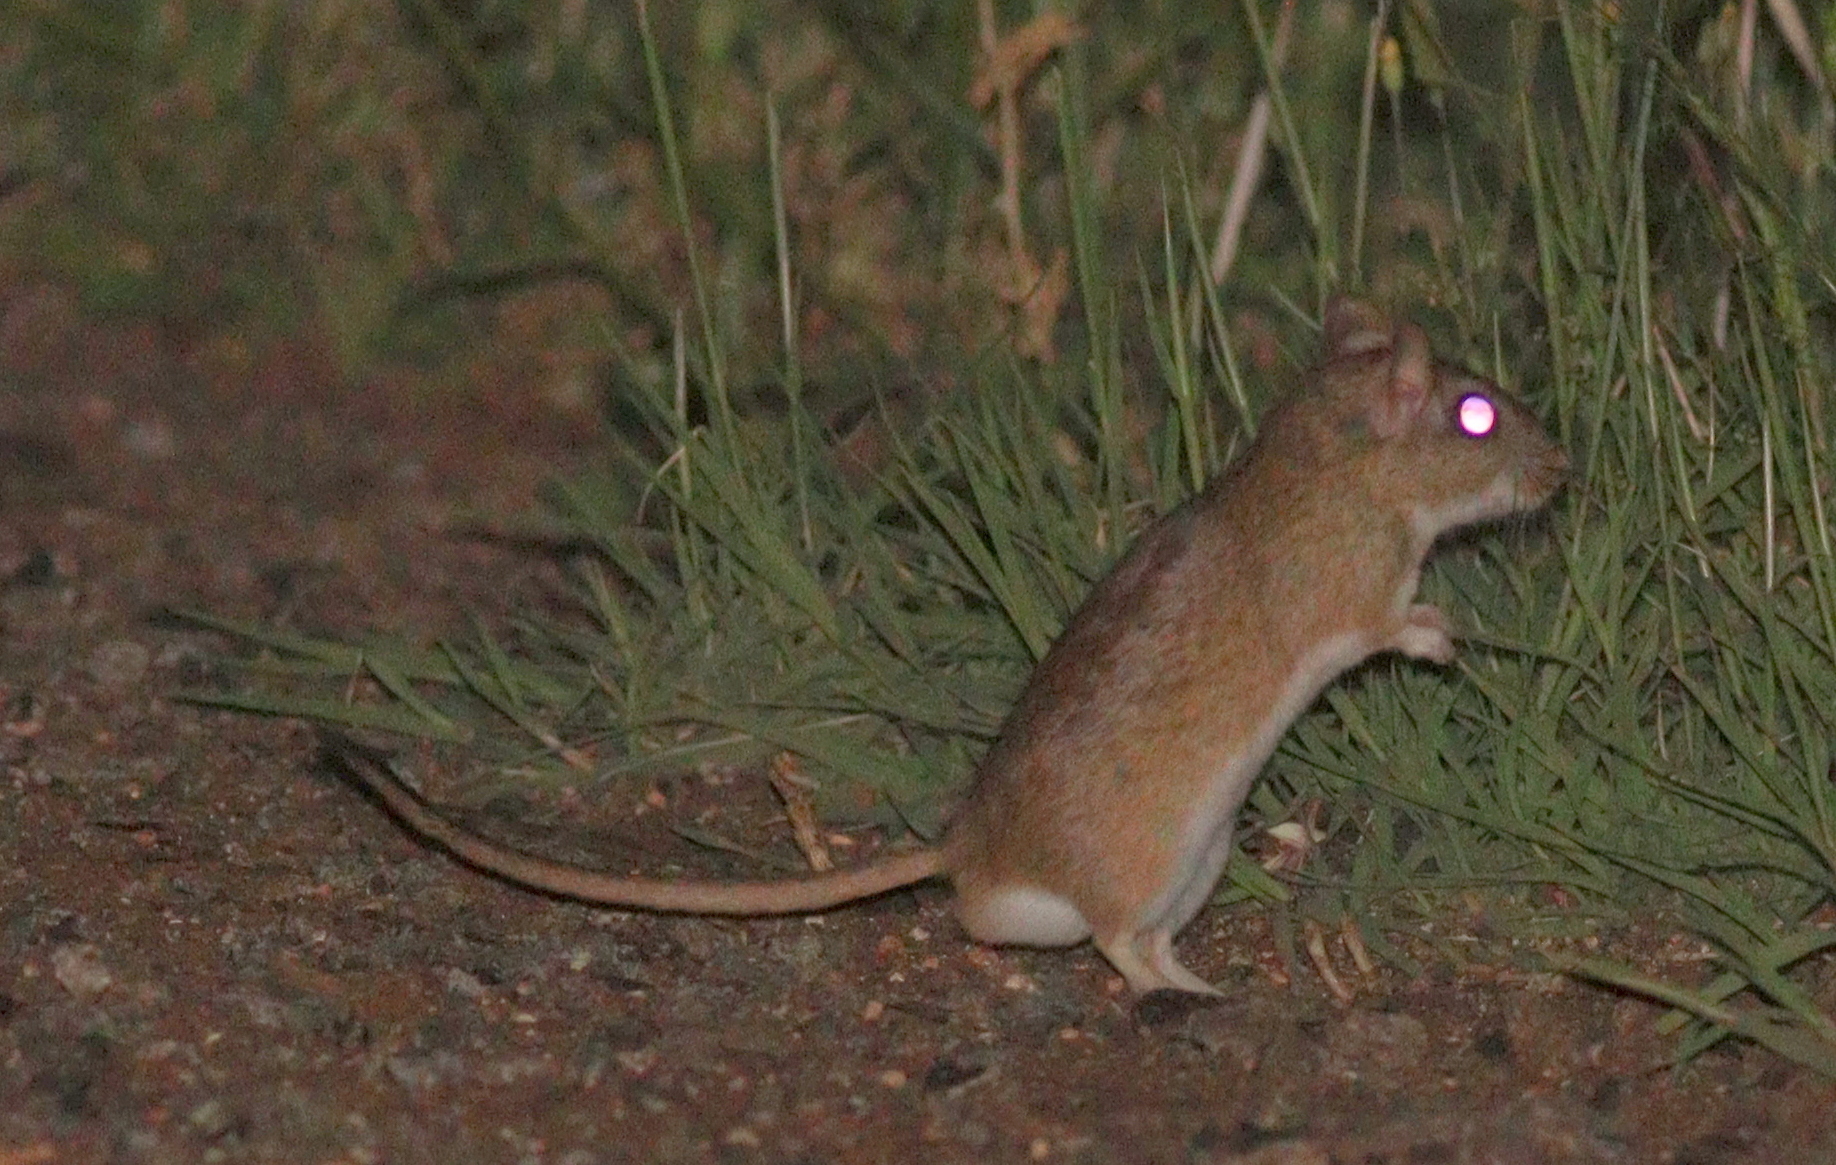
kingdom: Animalia
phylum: Chordata
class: Mammalia
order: Rodentia
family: Muridae
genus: Meriones
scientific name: Meriones tristrami
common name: Tristram's jird
